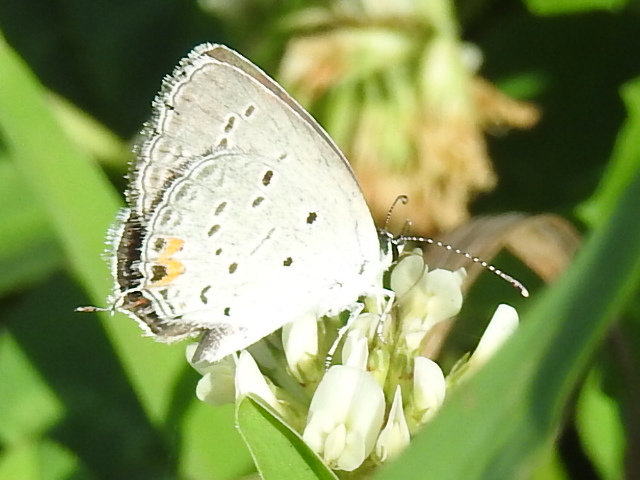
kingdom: Animalia
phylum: Arthropoda
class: Insecta
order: Lepidoptera
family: Lycaenidae
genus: Elkalyce
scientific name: Elkalyce comyntas
